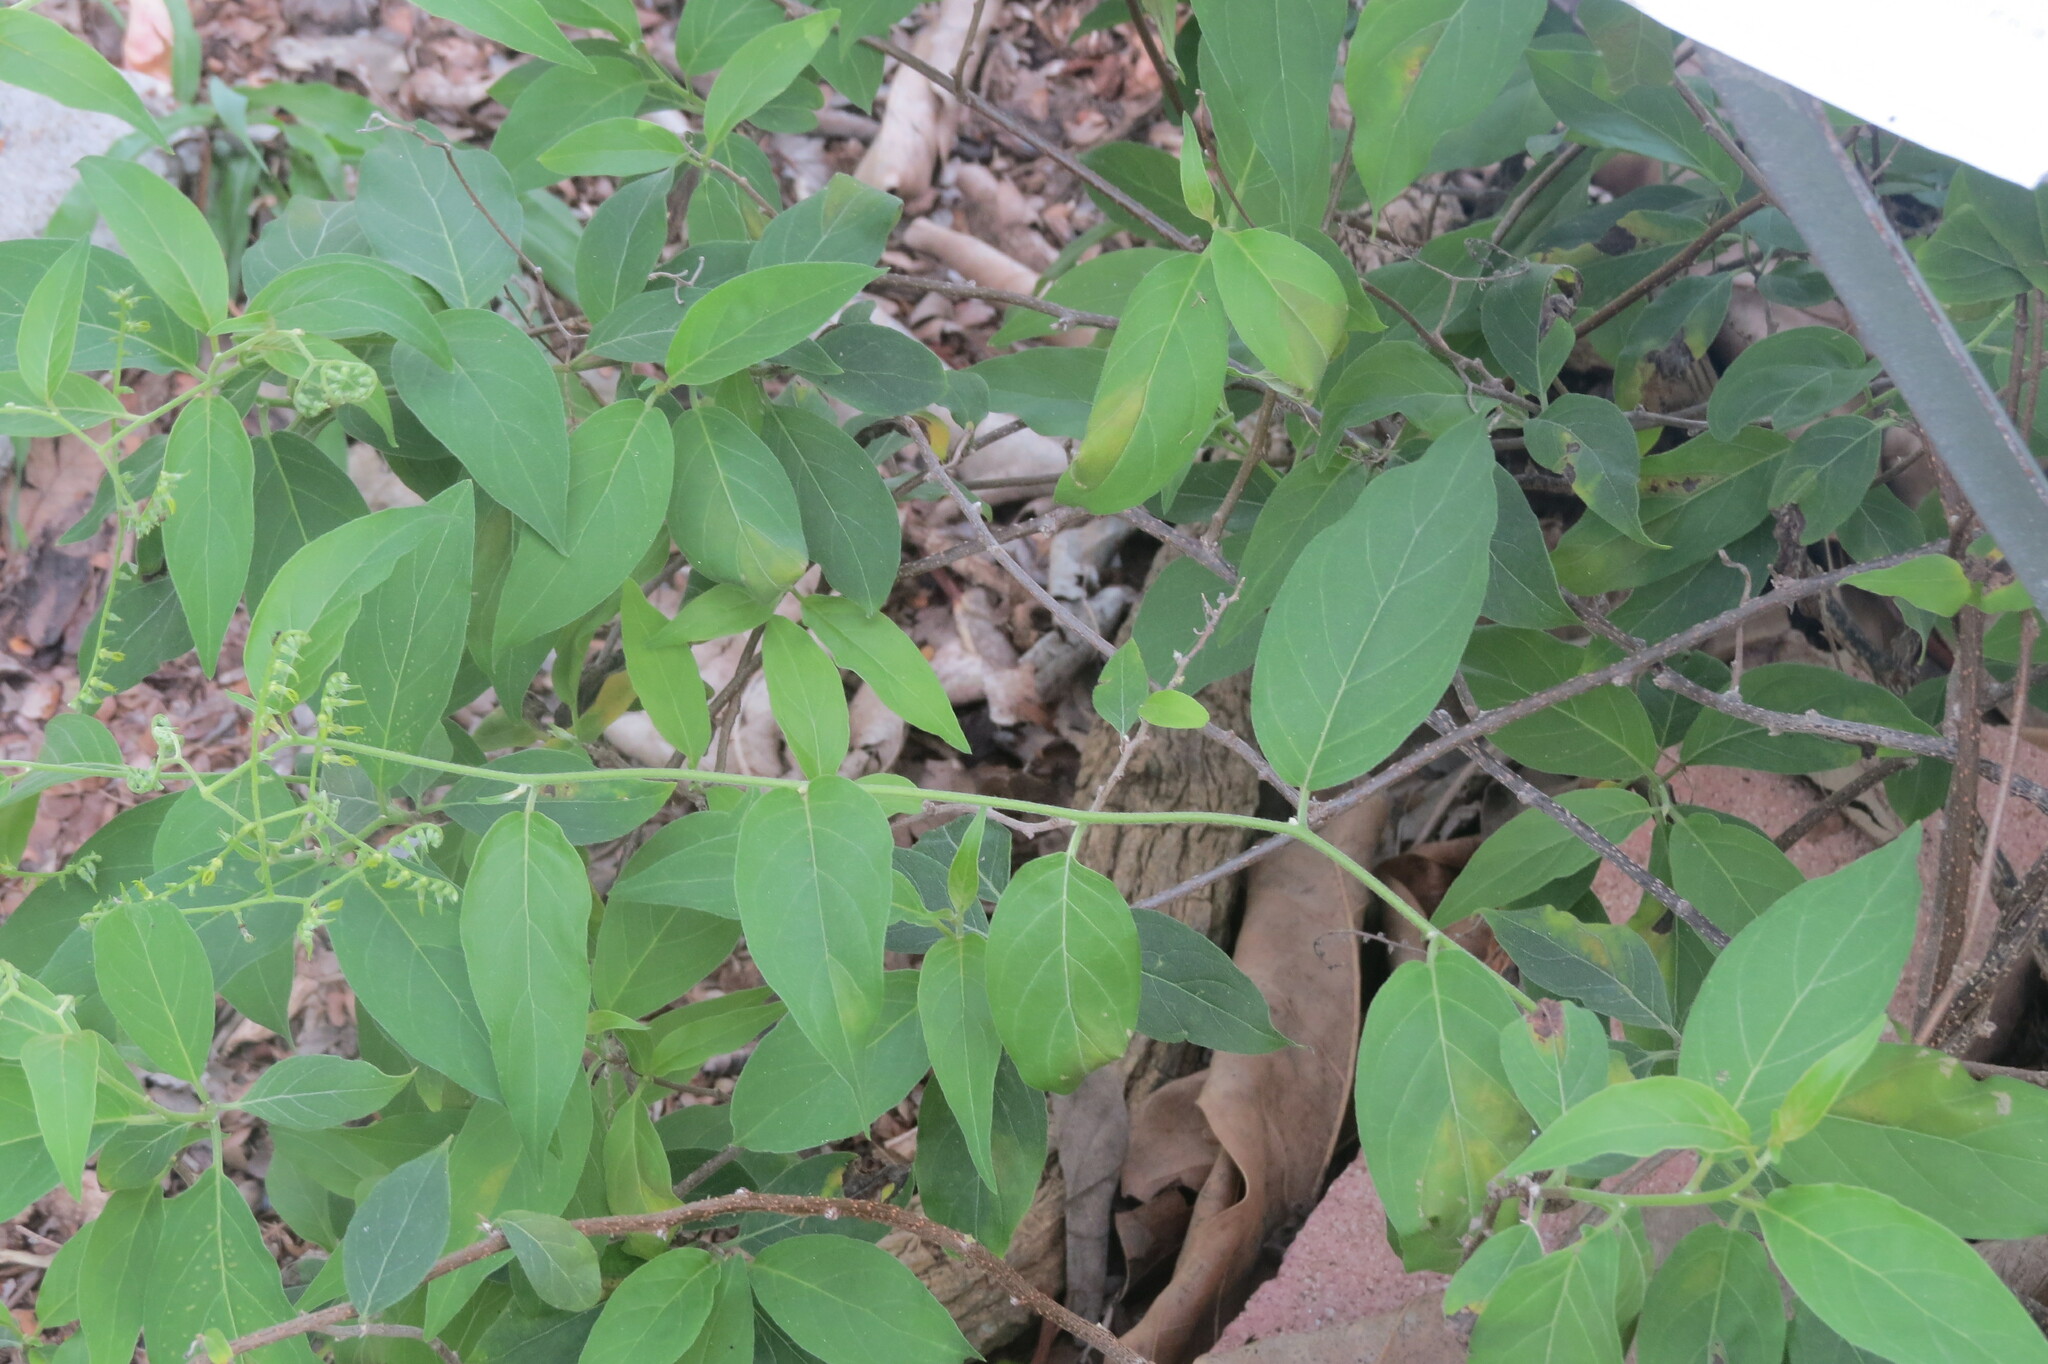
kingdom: Plantae
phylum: Tracheophyta
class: Magnoliopsida
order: Boraginales
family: Heliotropiaceae
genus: Myriopus
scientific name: Myriopus volubilis
